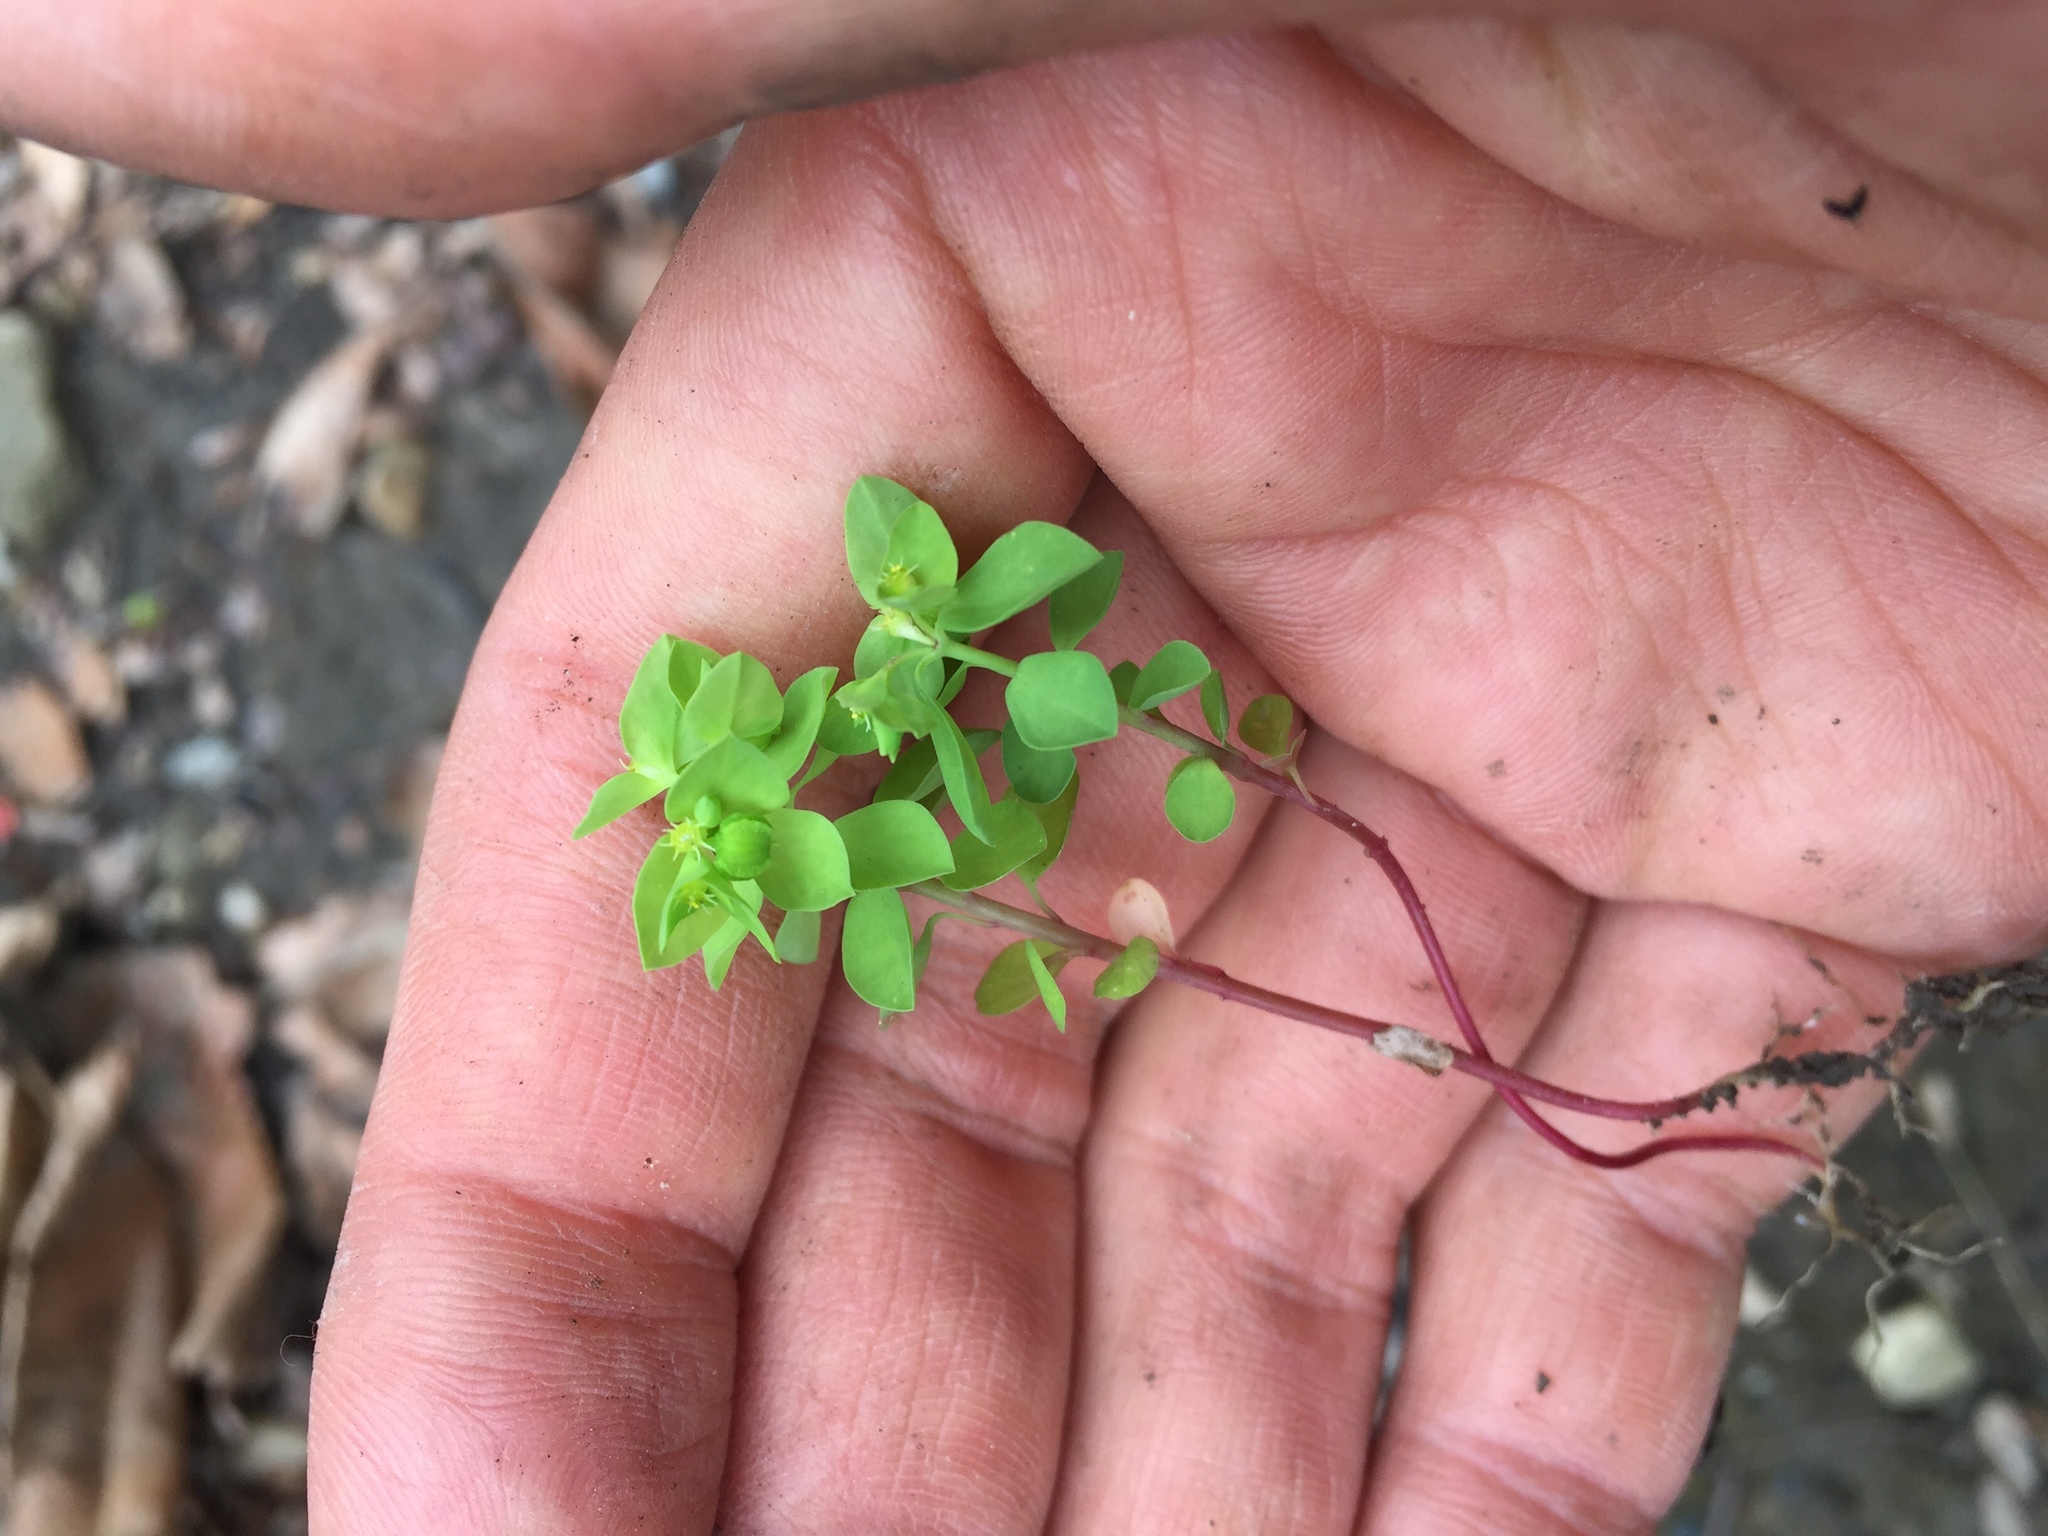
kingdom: Plantae
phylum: Tracheophyta
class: Magnoliopsida
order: Malpighiales
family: Euphorbiaceae
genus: Euphorbia
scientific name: Euphorbia peplus
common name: Petty spurge
